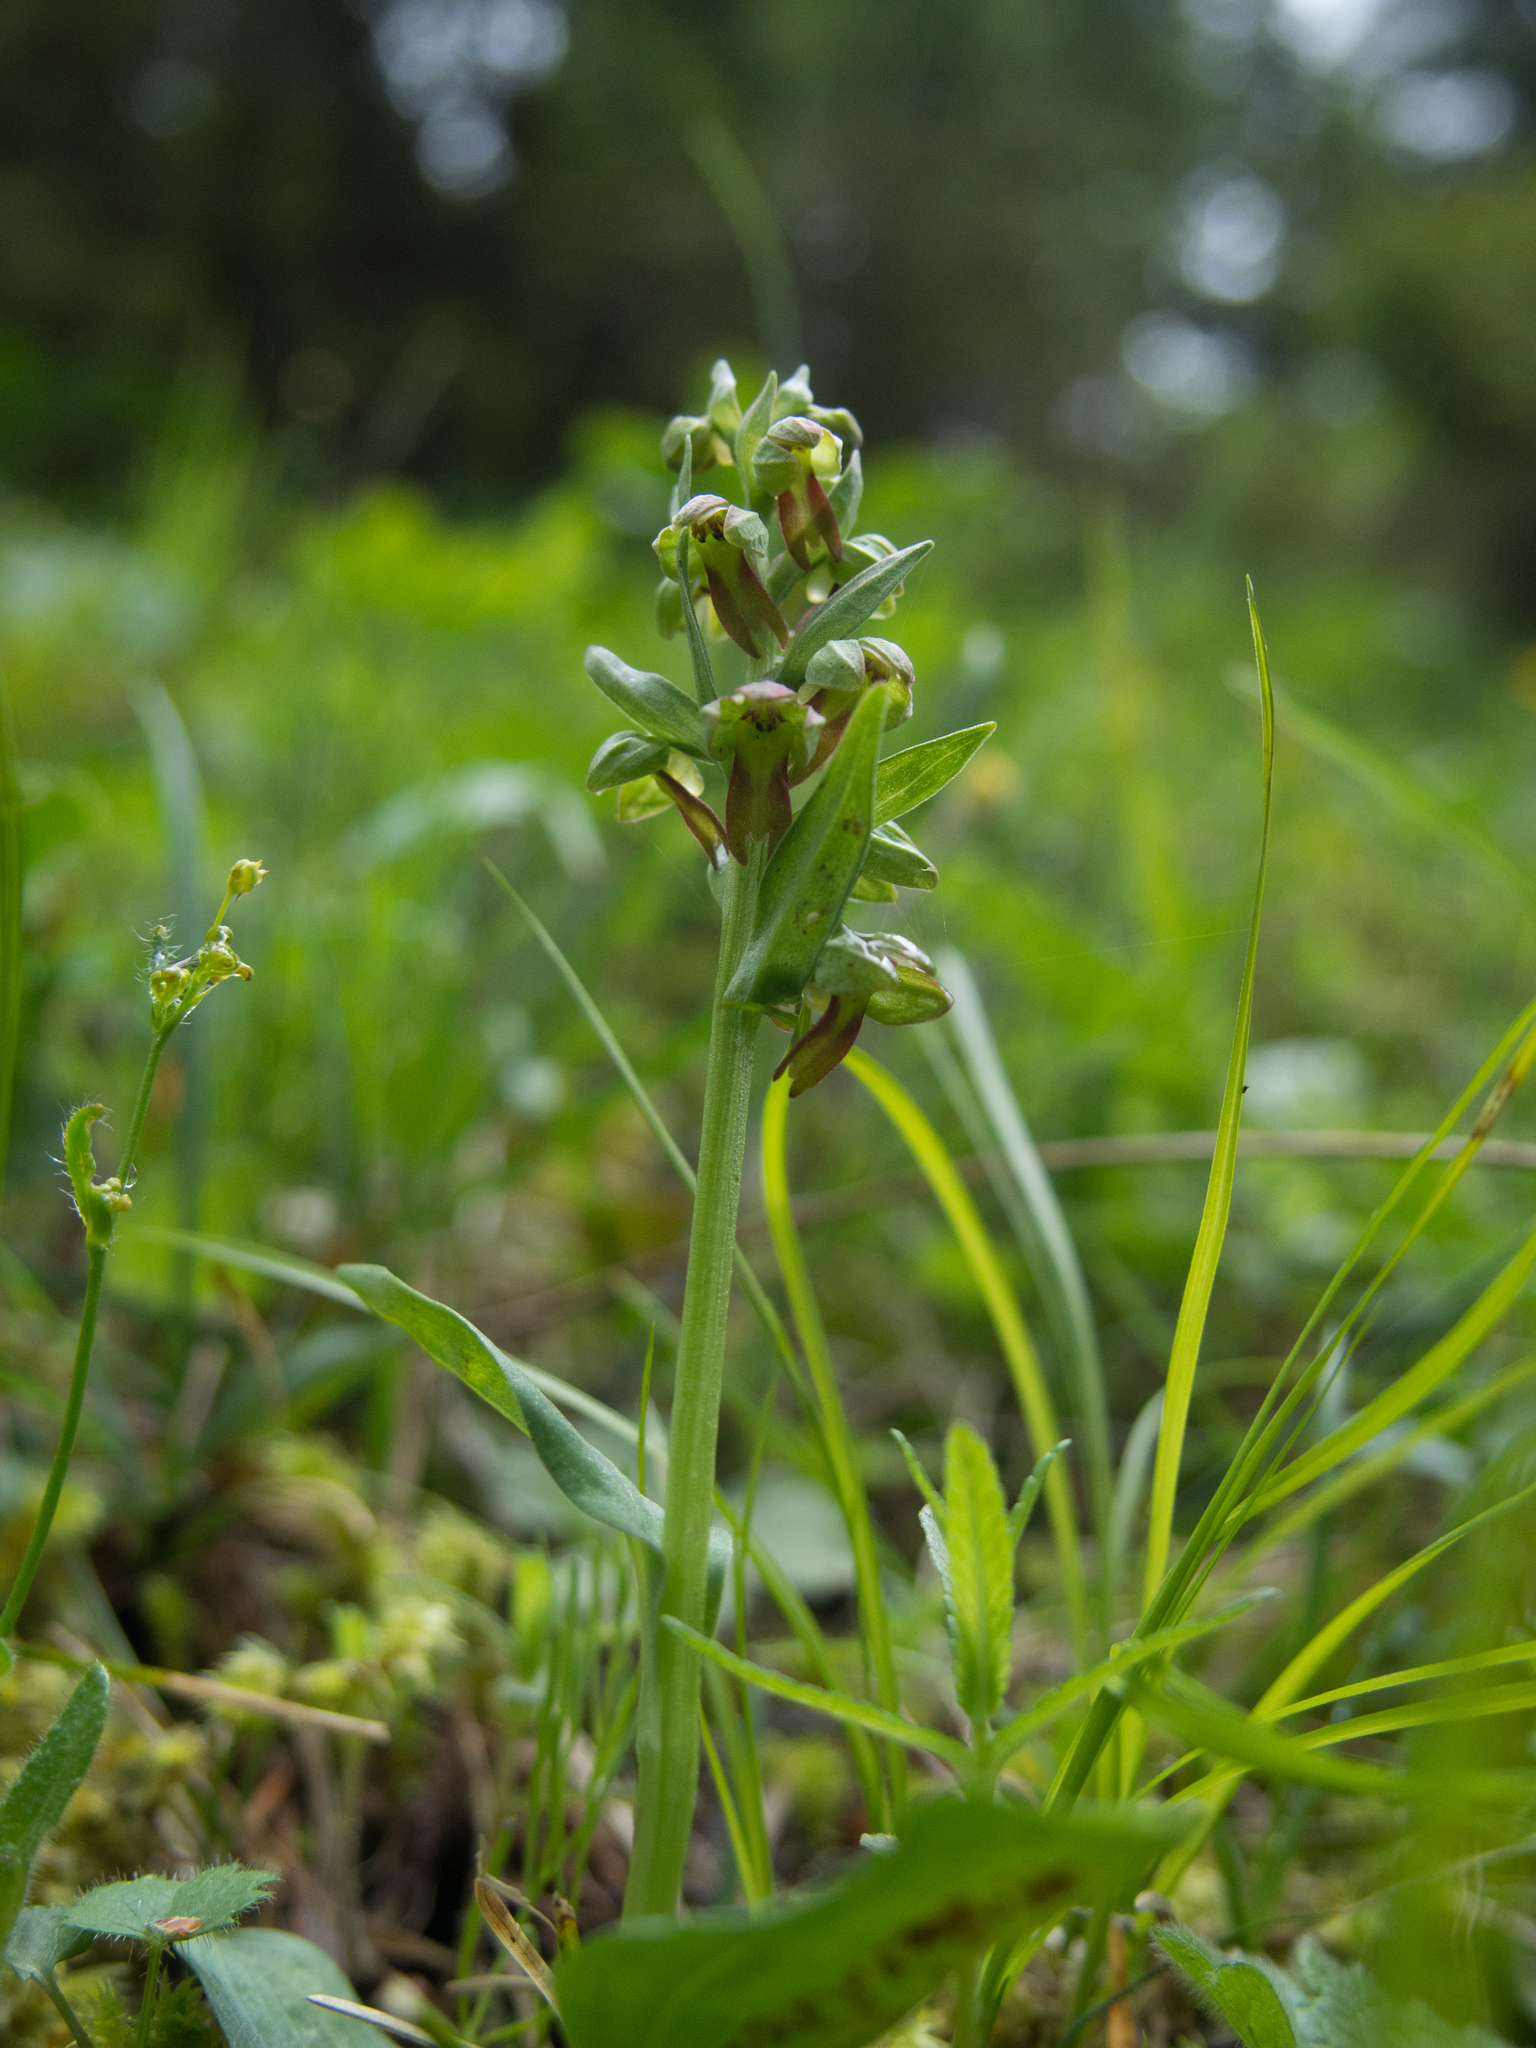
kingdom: Plantae
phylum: Tracheophyta
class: Liliopsida
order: Asparagales
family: Orchidaceae
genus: Dactylorhiza
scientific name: Dactylorhiza viridis
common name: Longbract frog orchid
